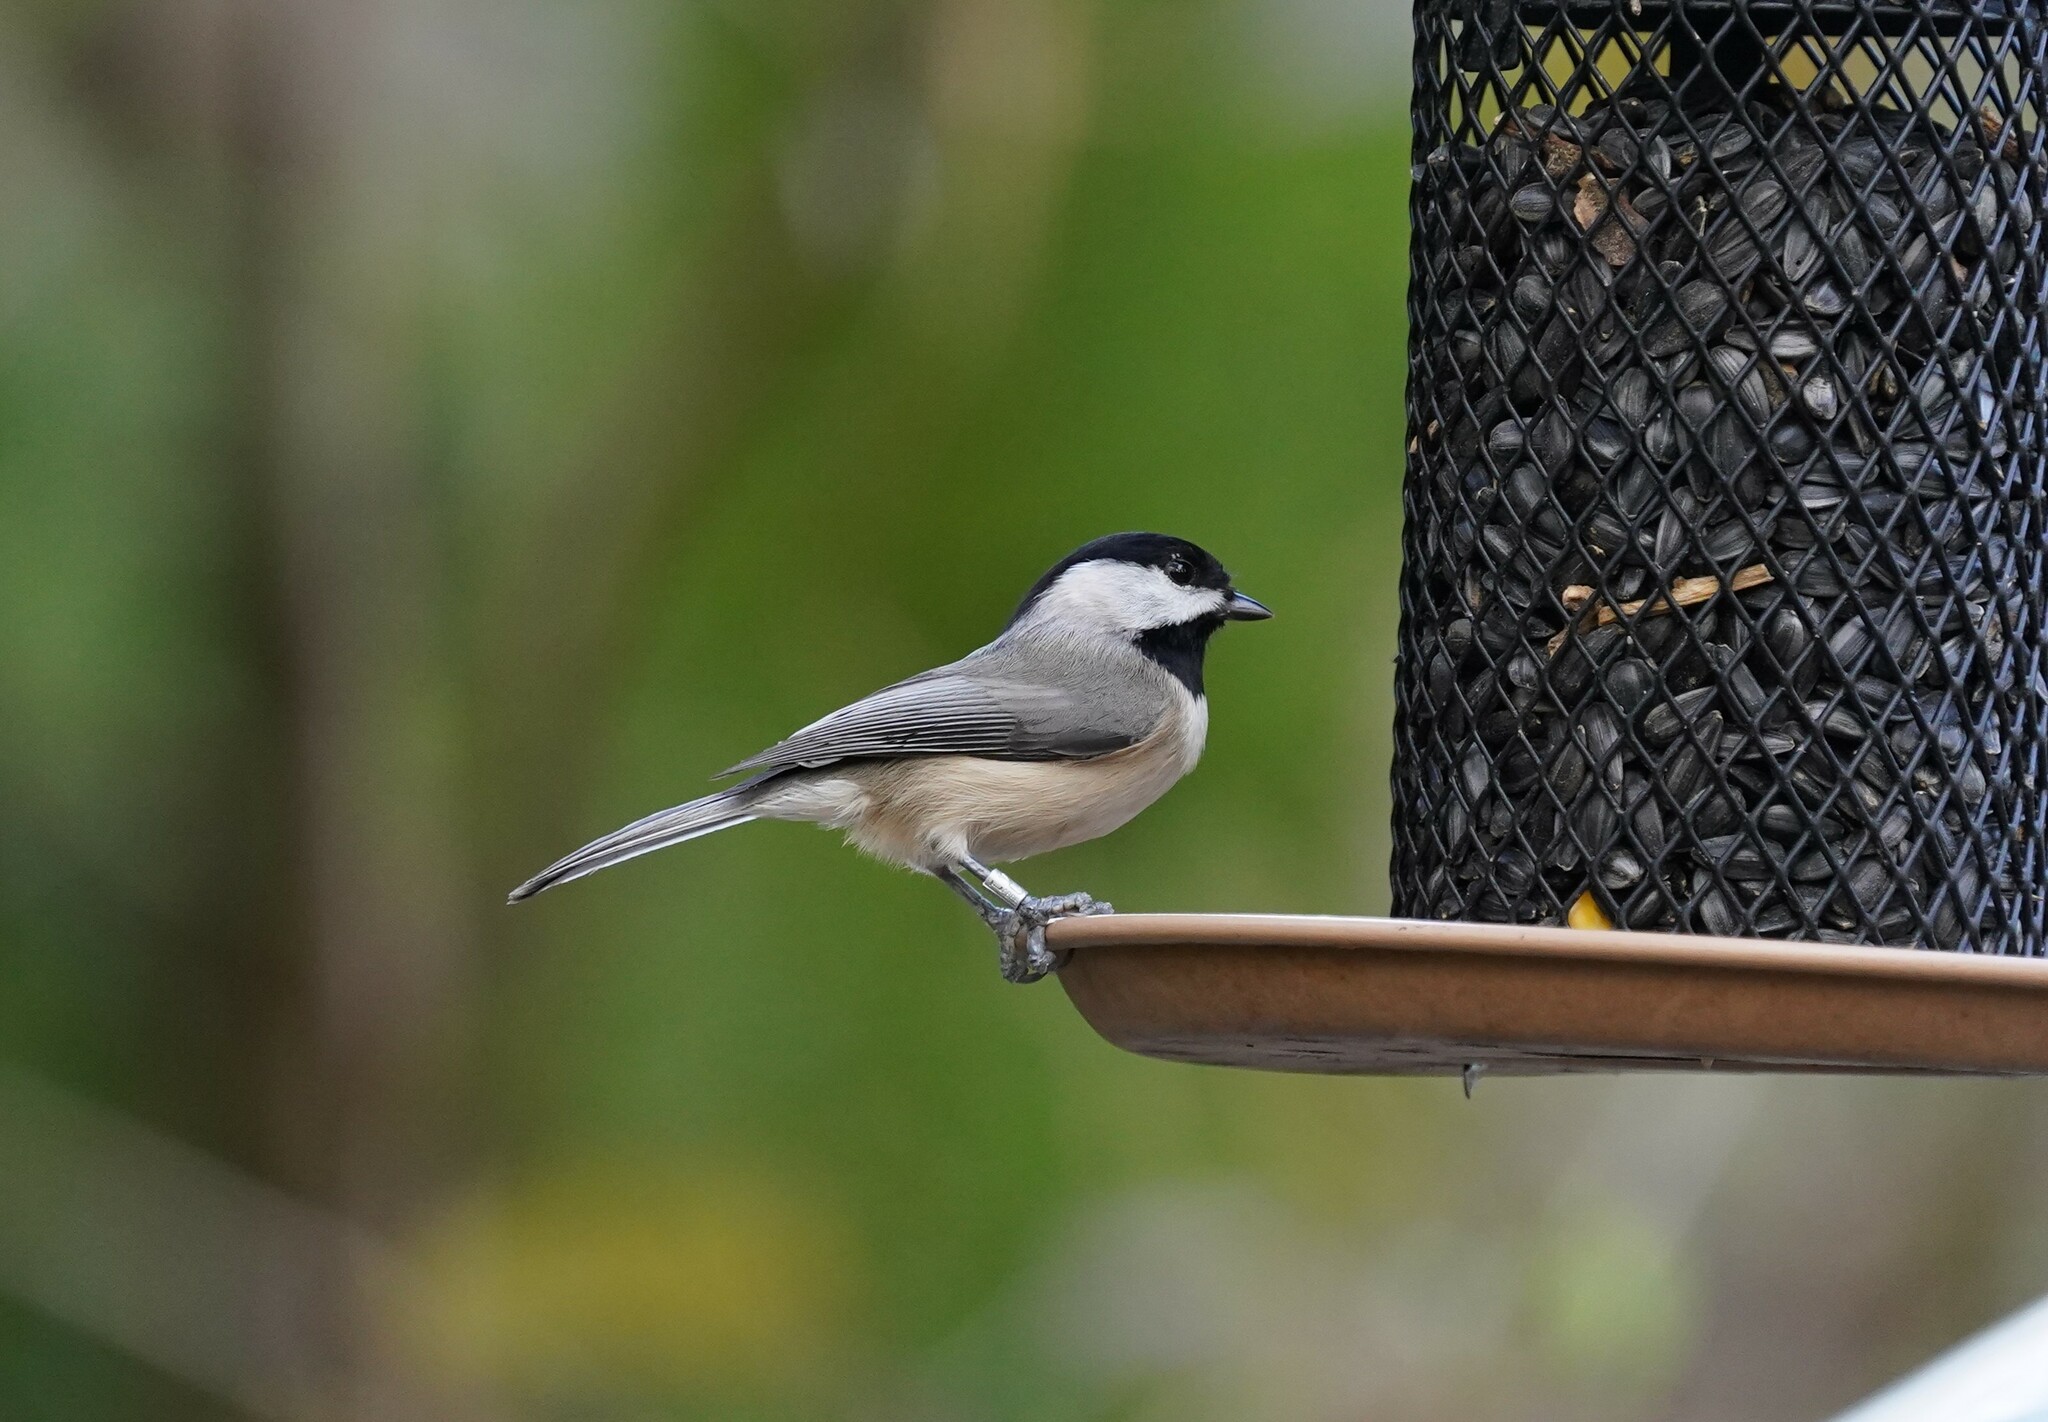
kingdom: Animalia
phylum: Chordata
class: Aves
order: Passeriformes
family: Paridae
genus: Poecile
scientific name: Poecile carolinensis
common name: Carolina chickadee
